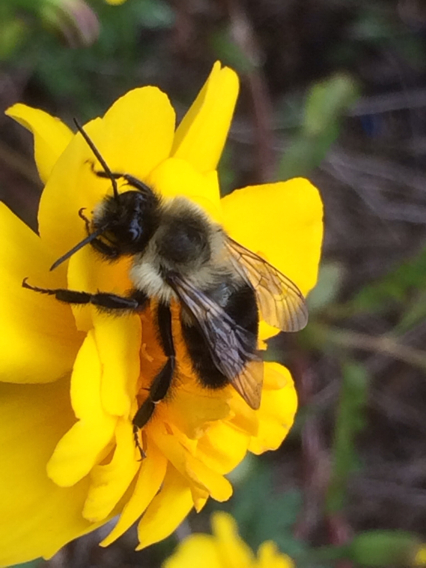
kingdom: Animalia
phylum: Arthropoda
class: Insecta
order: Hymenoptera
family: Apidae
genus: Bombus
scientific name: Bombus impatiens
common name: Common eastern bumble bee
